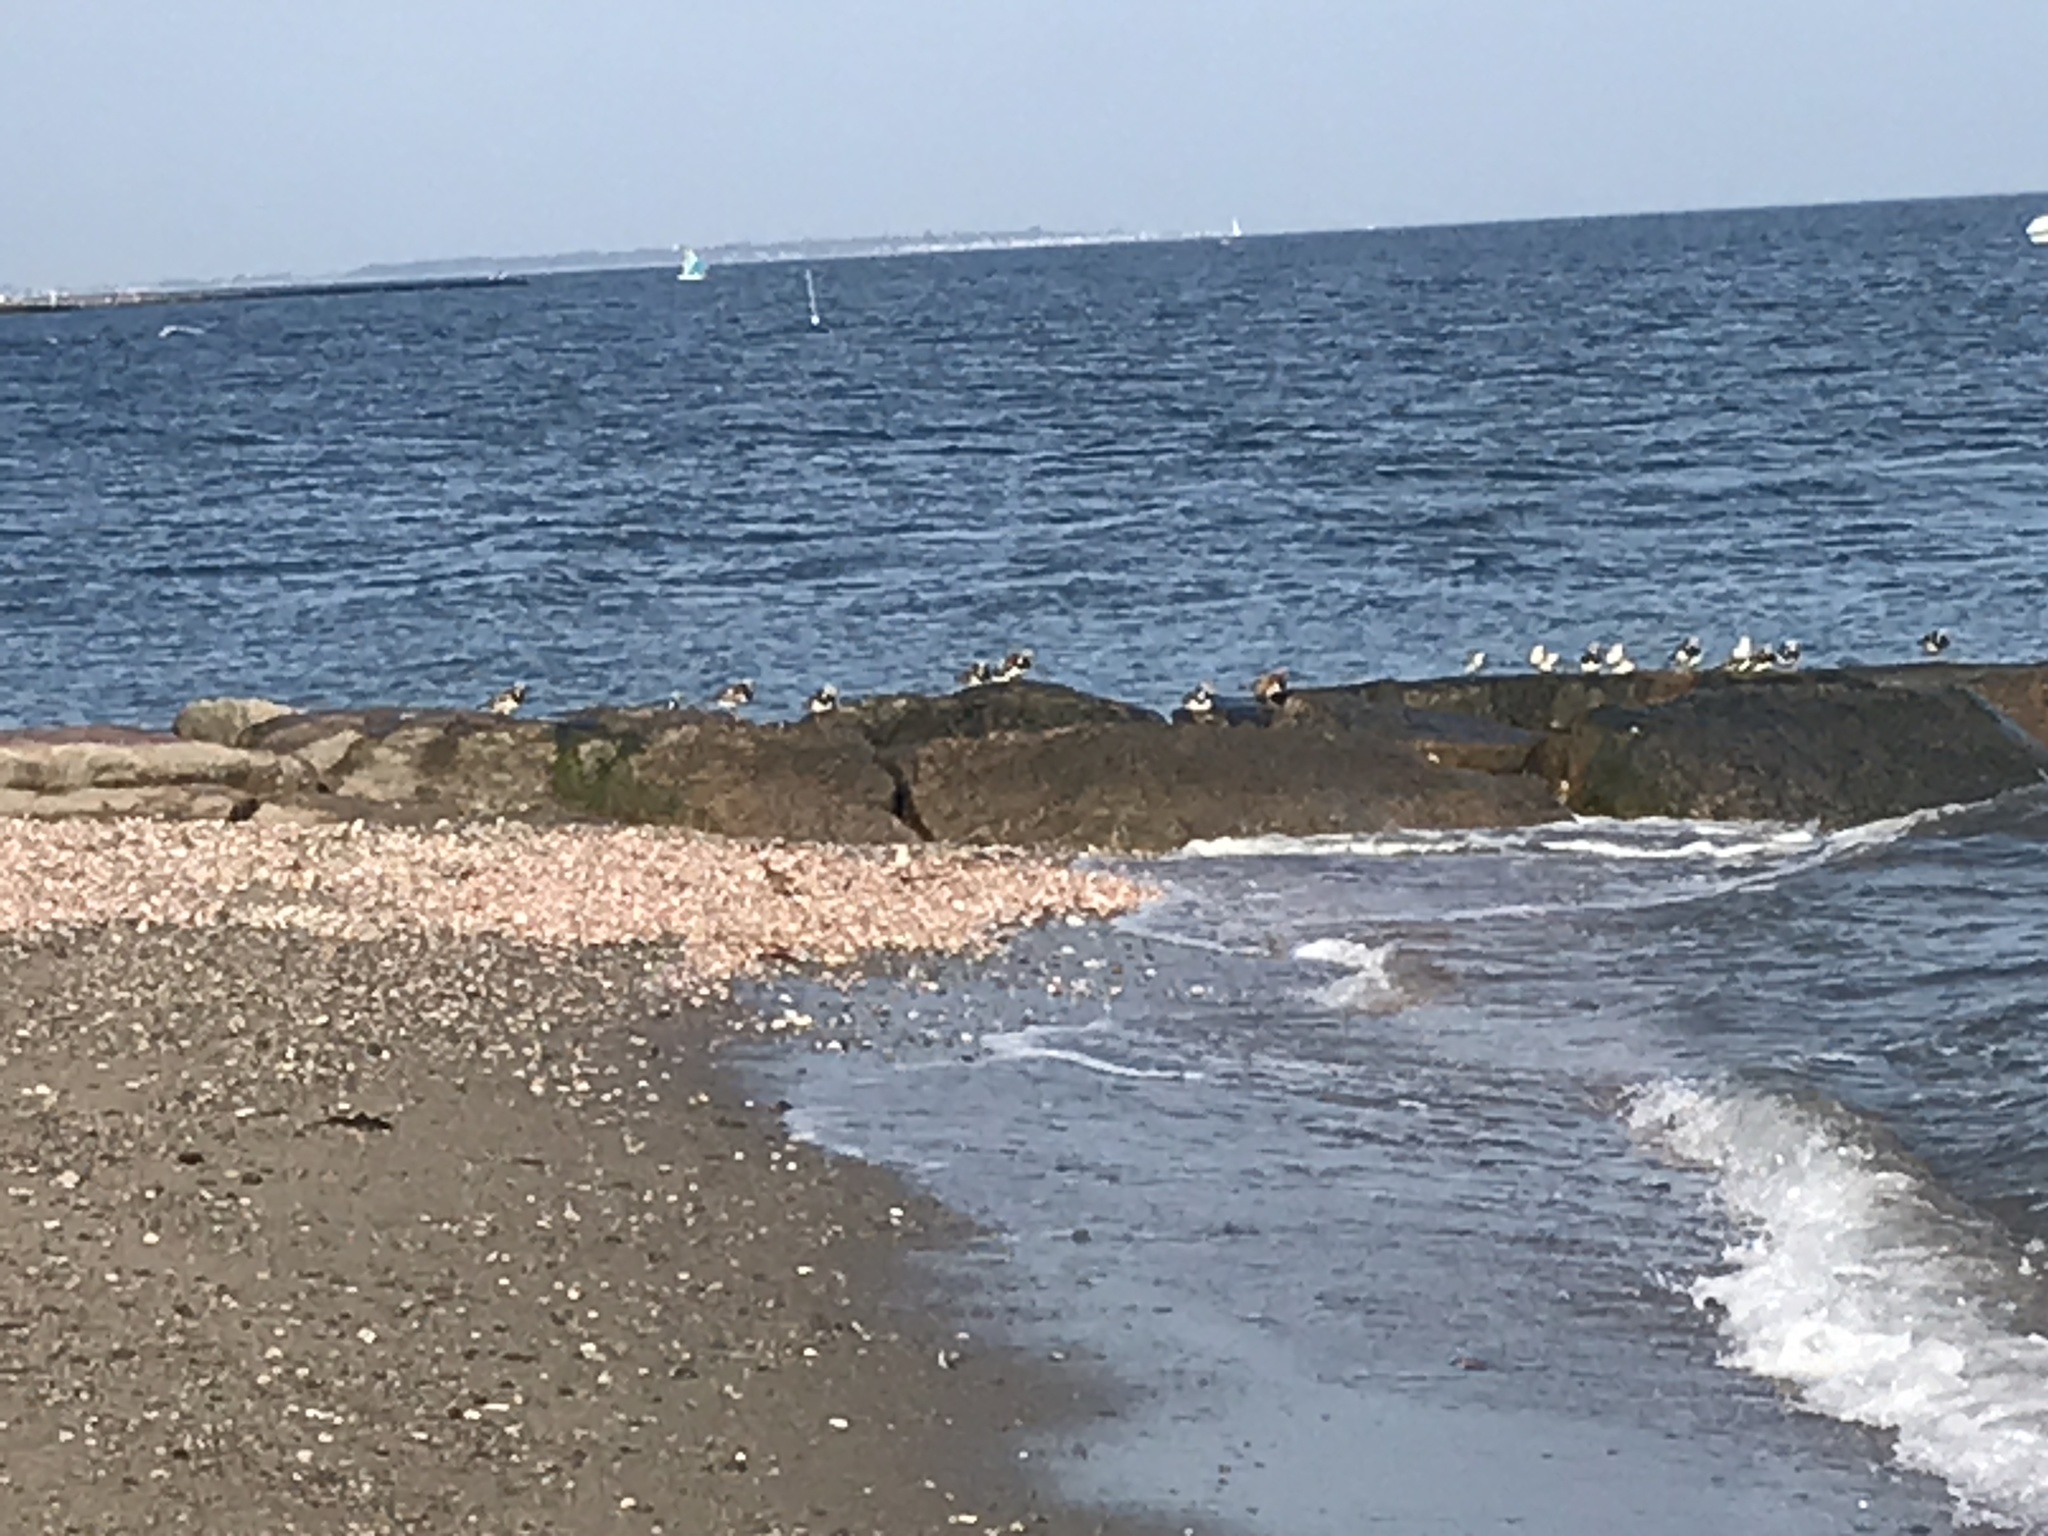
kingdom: Animalia
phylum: Chordata
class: Aves
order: Charadriiformes
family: Scolopacidae
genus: Arenaria
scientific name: Arenaria interpres
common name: Ruddy turnstone
